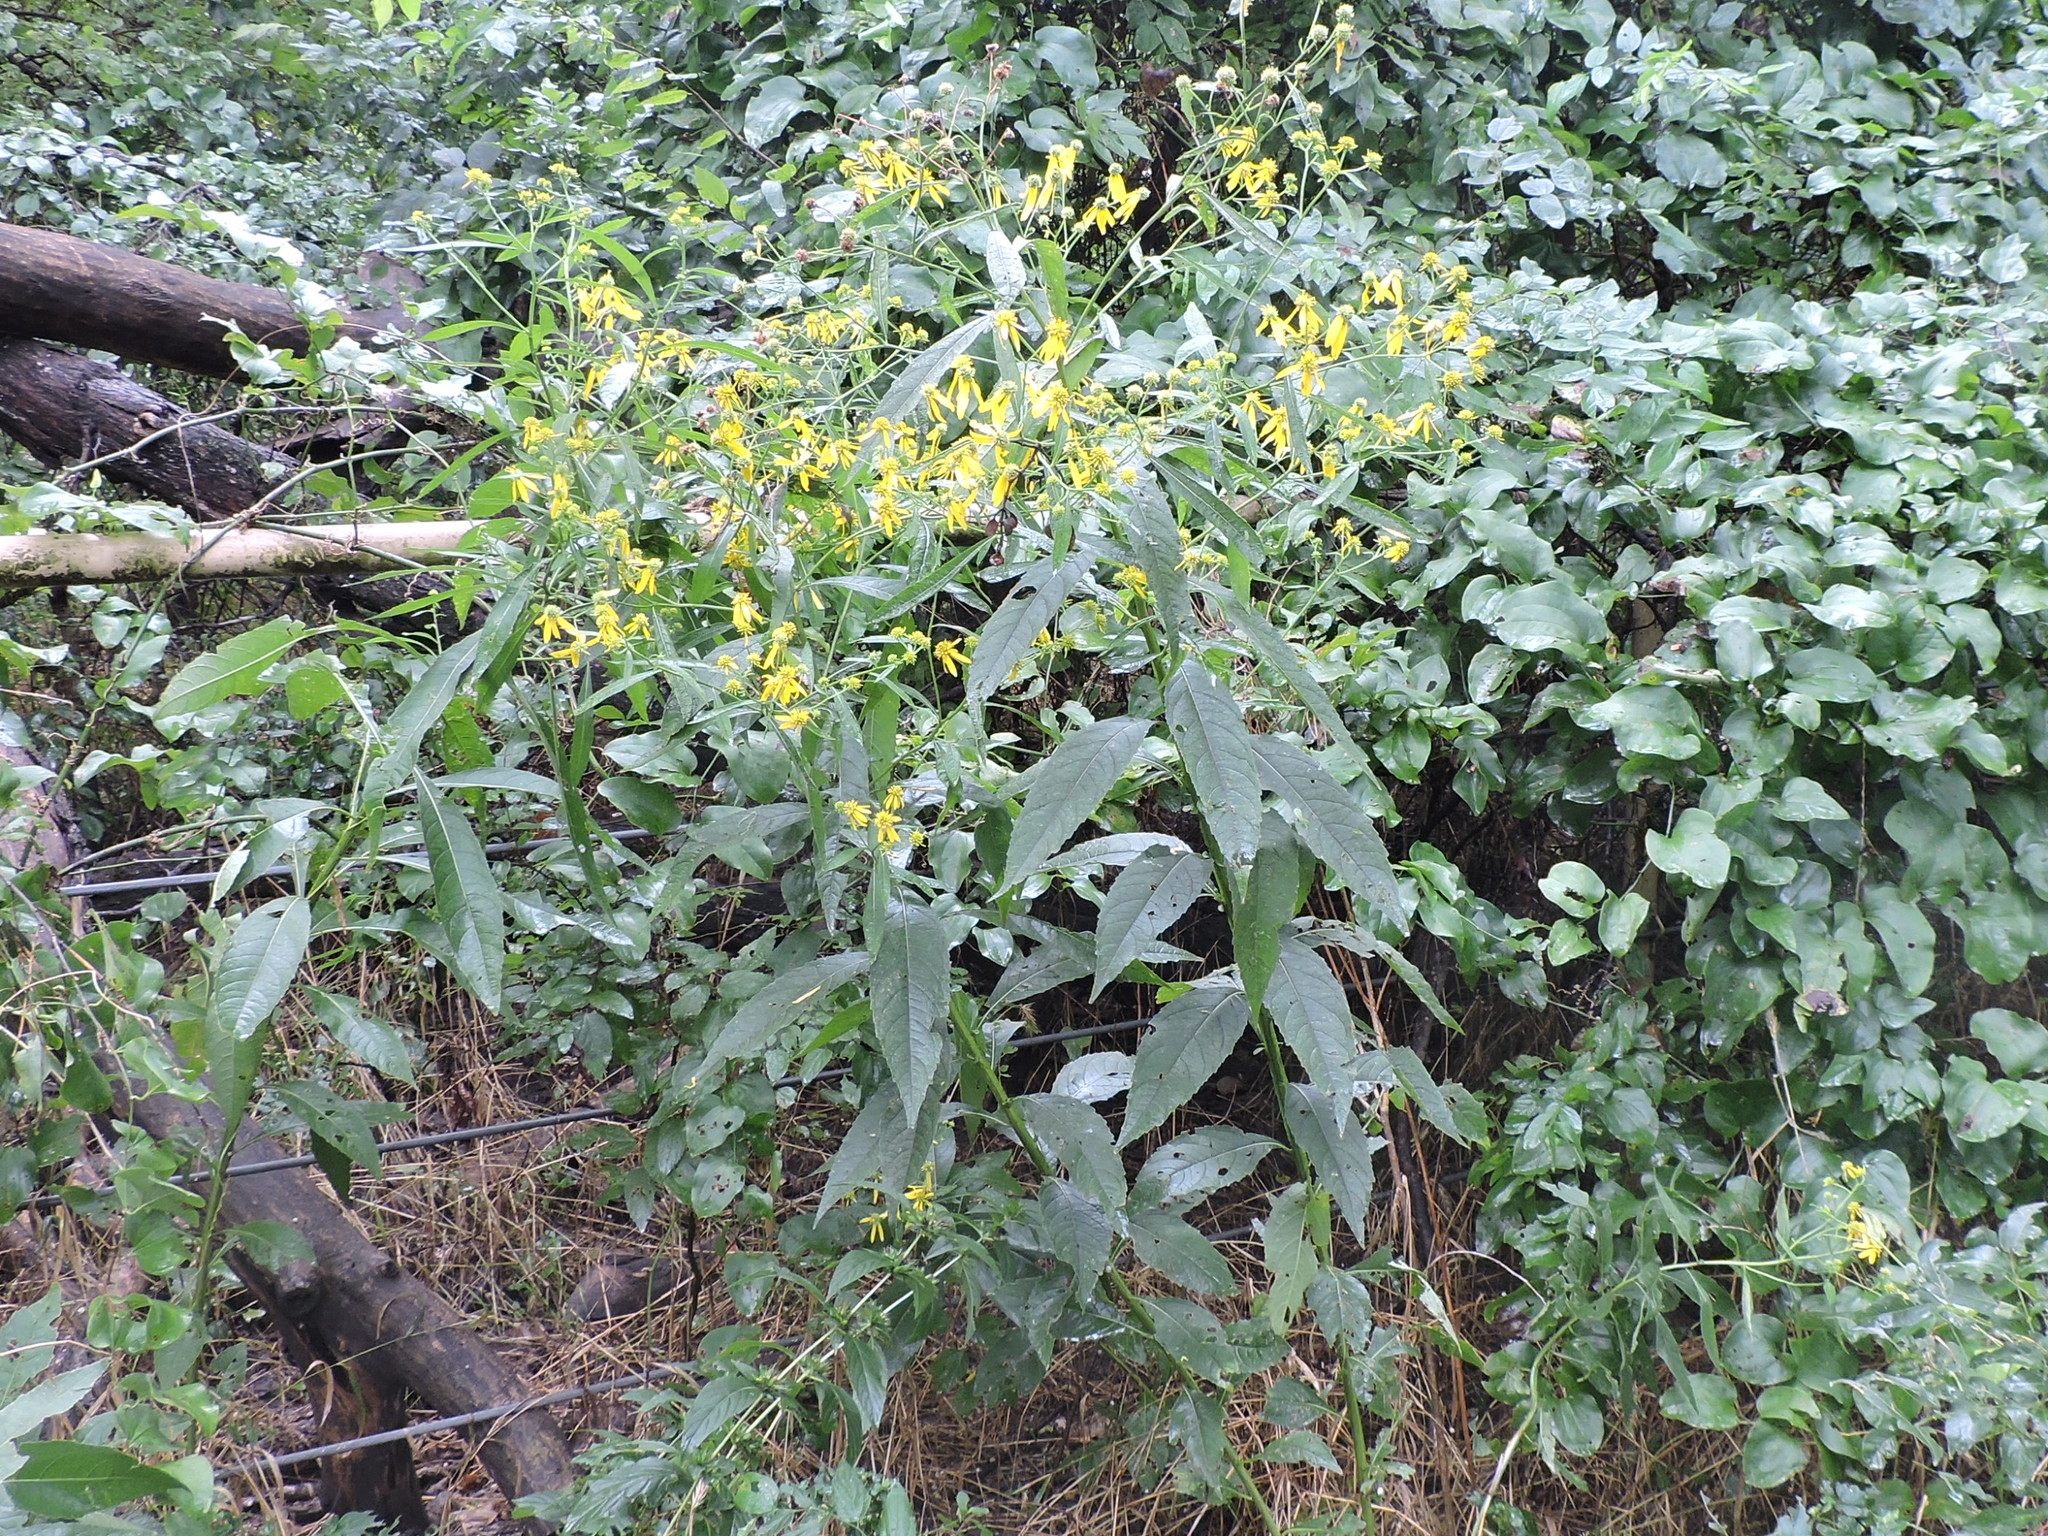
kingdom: Plantae
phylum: Tracheophyta
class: Magnoliopsida
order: Asterales
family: Asteraceae
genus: Verbesina
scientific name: Verbesina alternifolia
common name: Wingstem
